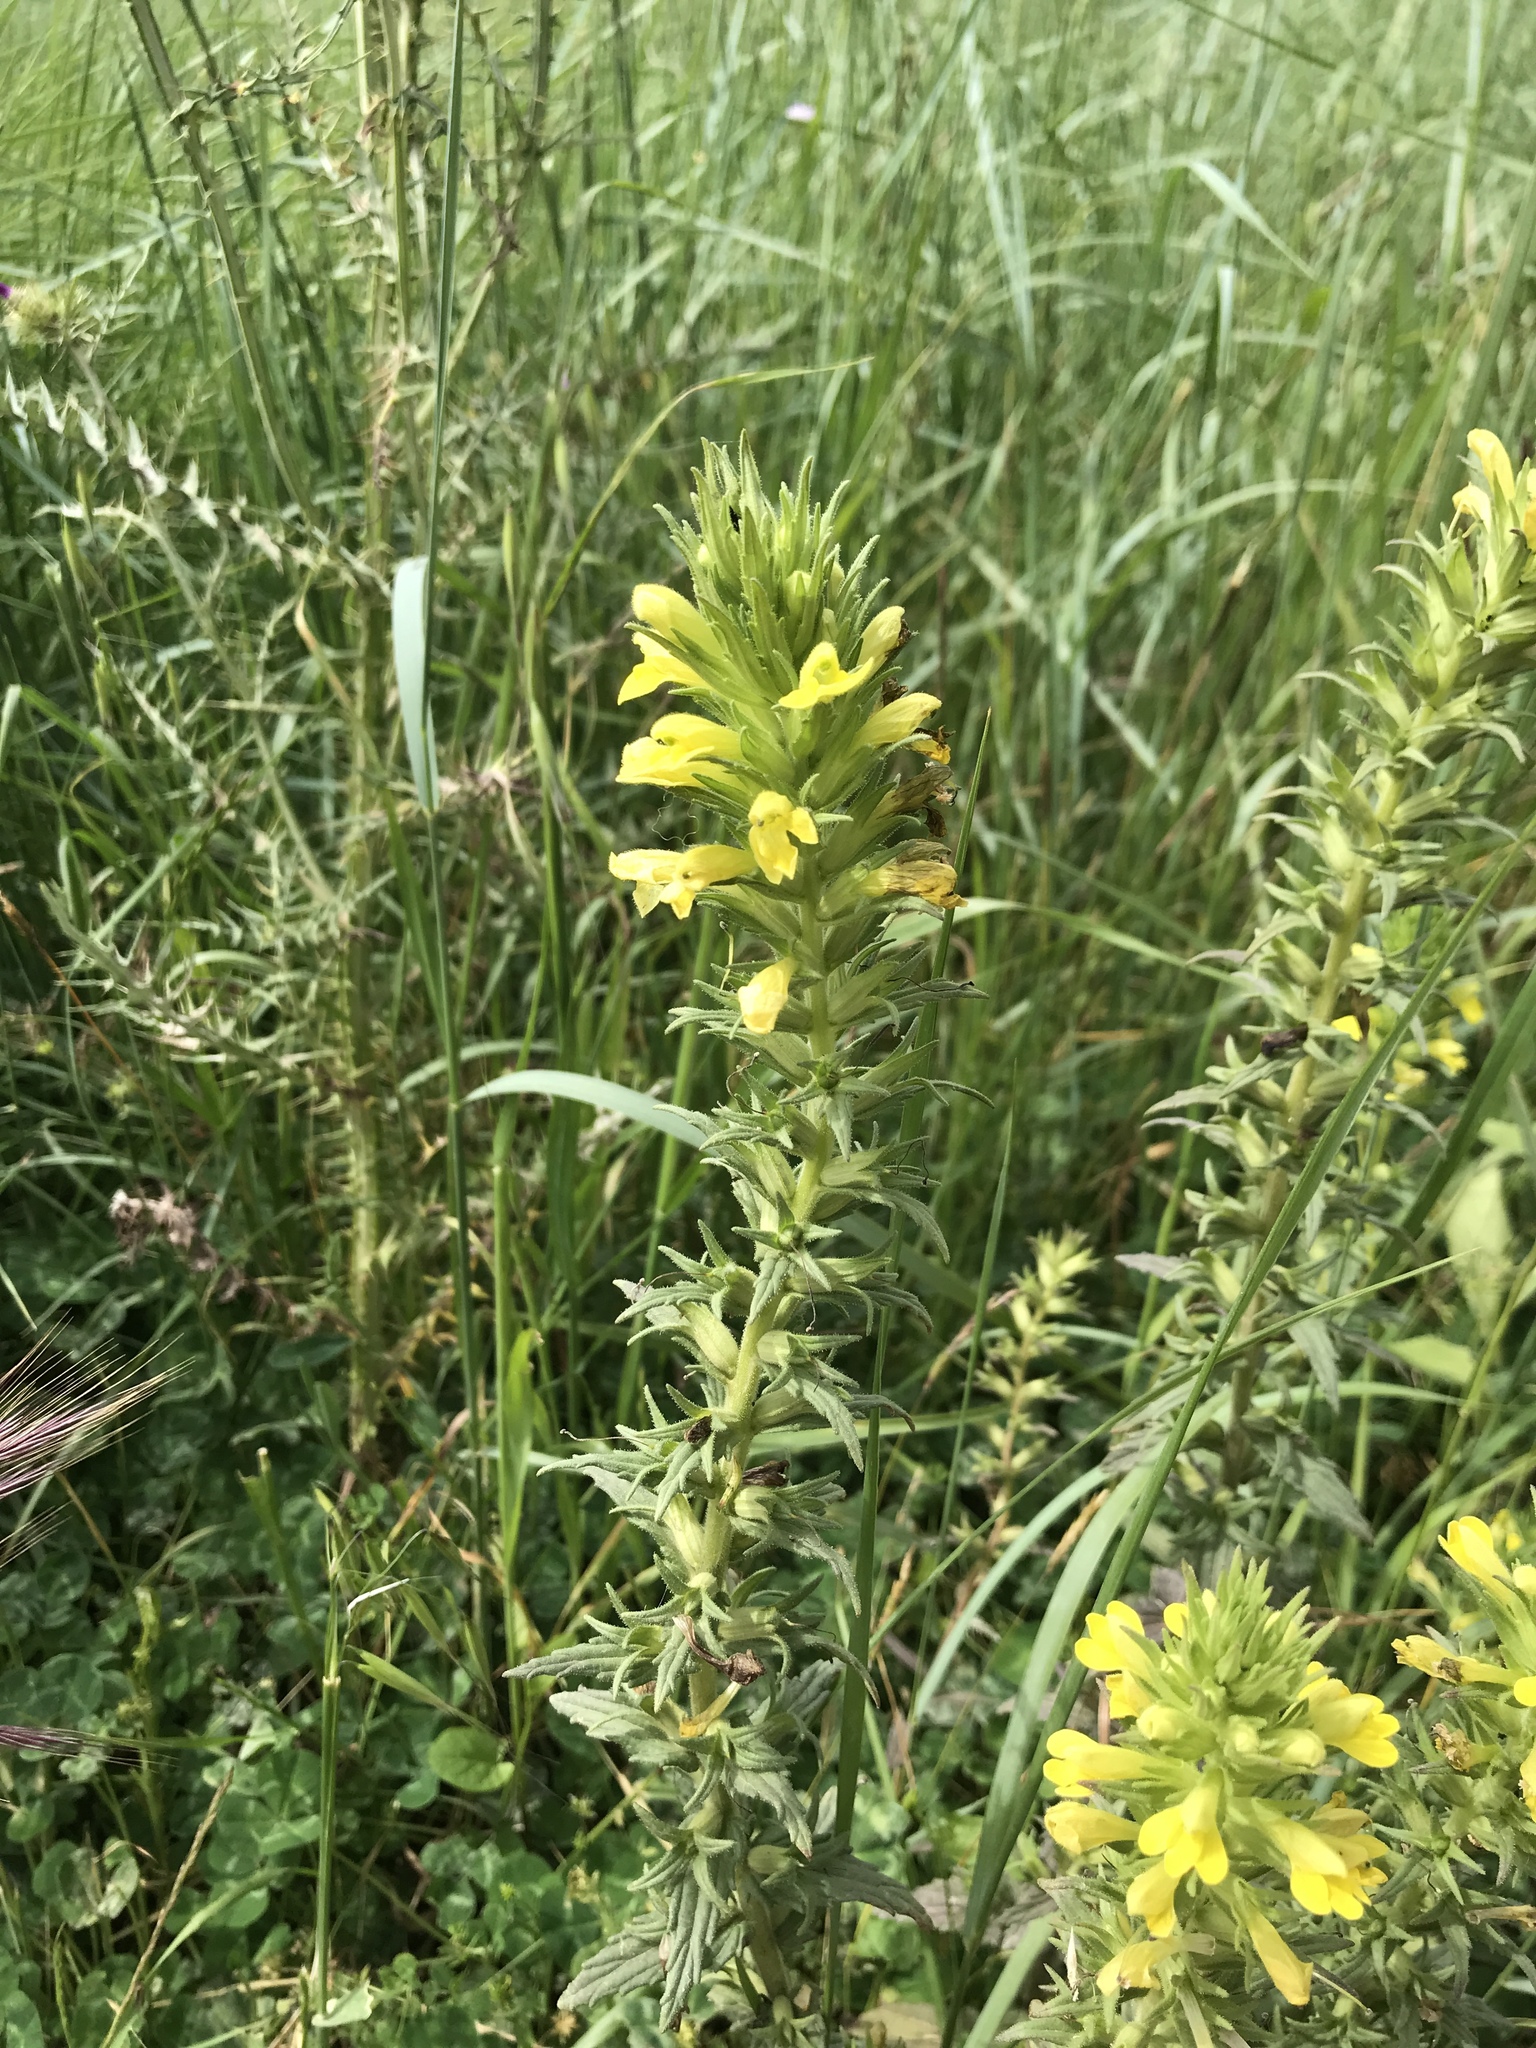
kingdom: Plantae
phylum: Tracheophyta
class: Magnoliopsida
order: Lamiales
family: Orobanchaceae
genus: Bellardia
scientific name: Bellardia viscosa
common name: Sticky parentucellia
